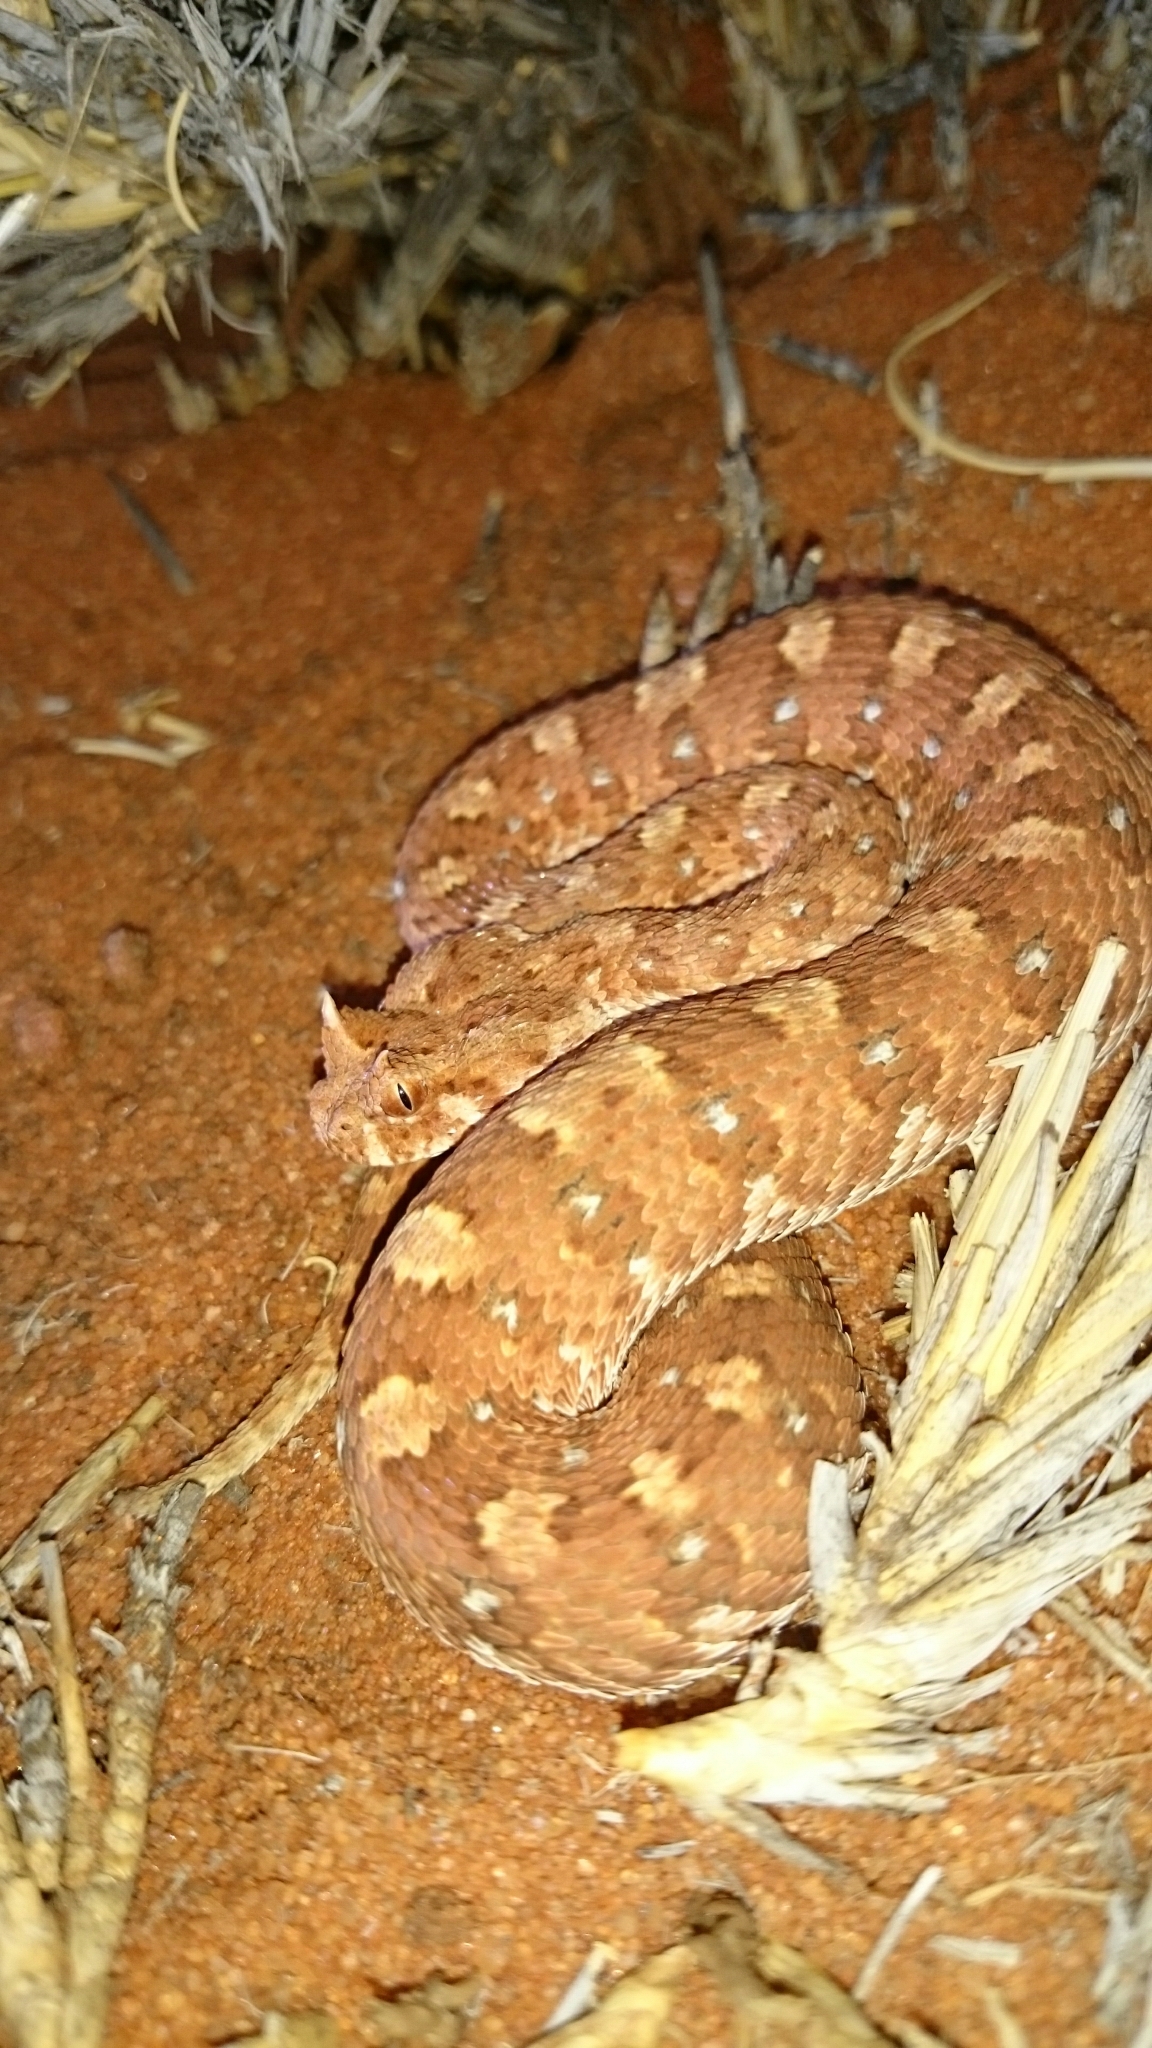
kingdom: Animalia
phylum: Chordata
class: Squamata
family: Viperidae
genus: Bitis
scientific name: Bitis caudalis
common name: Horned adder
